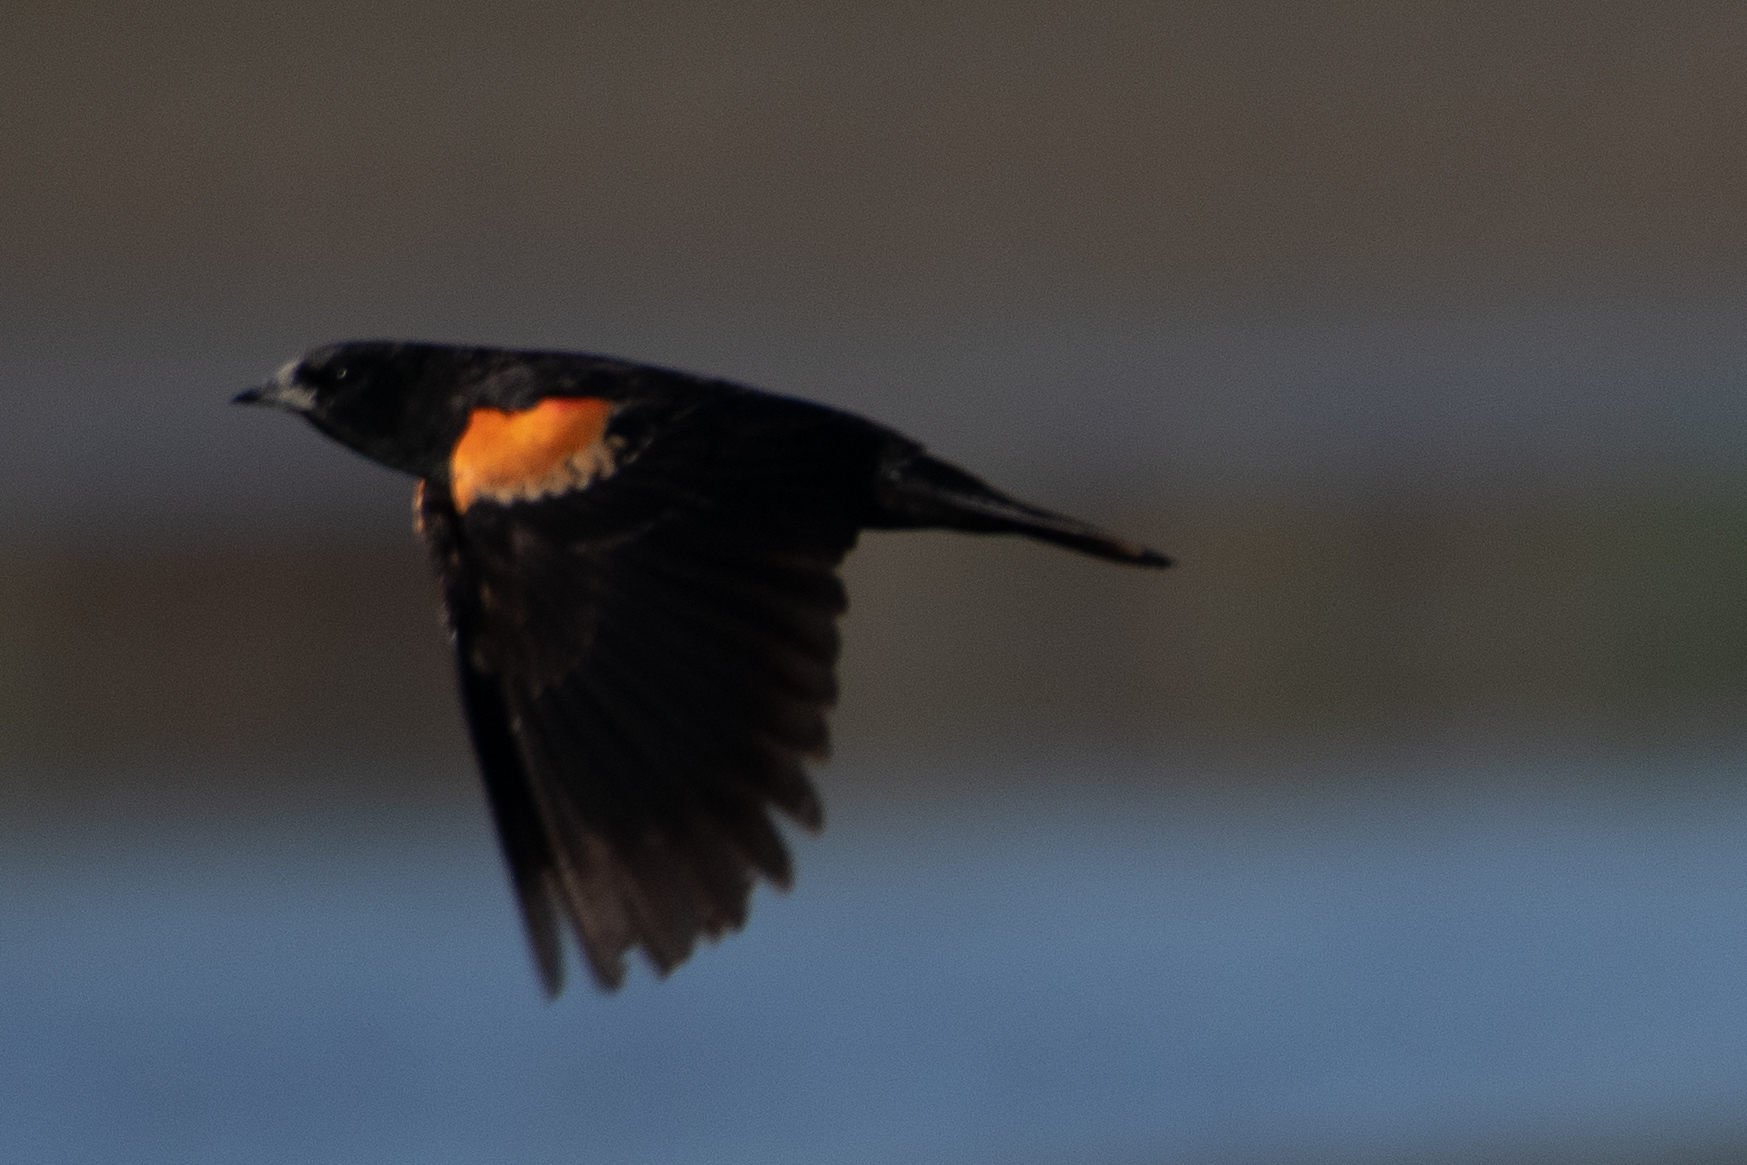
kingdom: Animalia
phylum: Chordata
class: Aves
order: Passeriformes
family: Icteridae
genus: Agelaius
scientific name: Agelaius phoeniceus
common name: Red-winged blackbird
